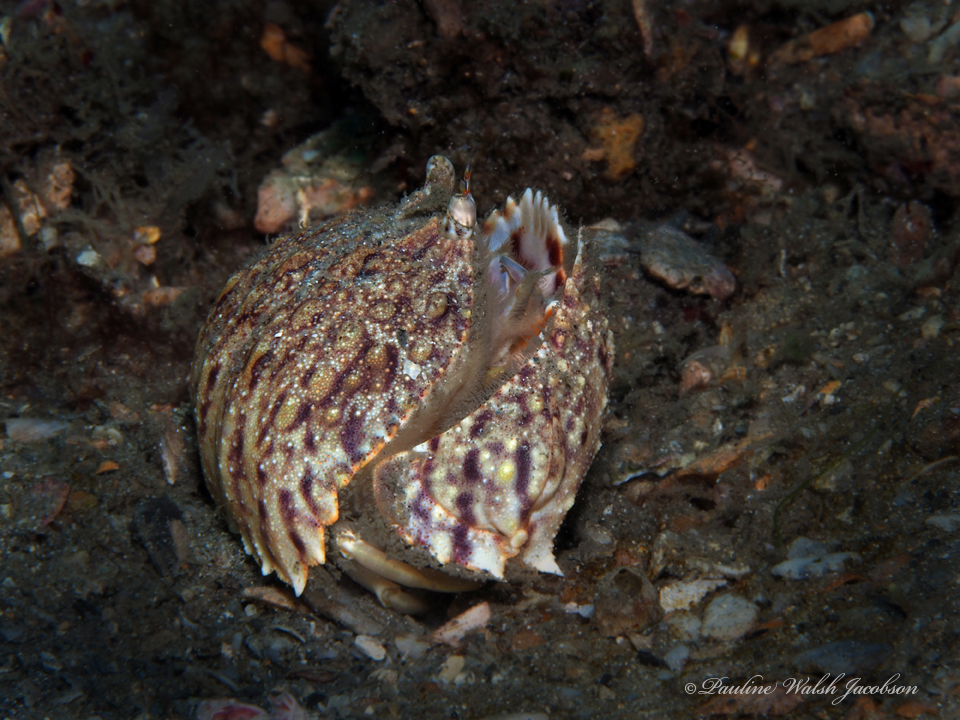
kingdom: Animalia
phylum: Arthropoda
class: Malacostraca
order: Decapoda
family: Calappidae
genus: Calappa
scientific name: Calappa flammea
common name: Flamed box crab
